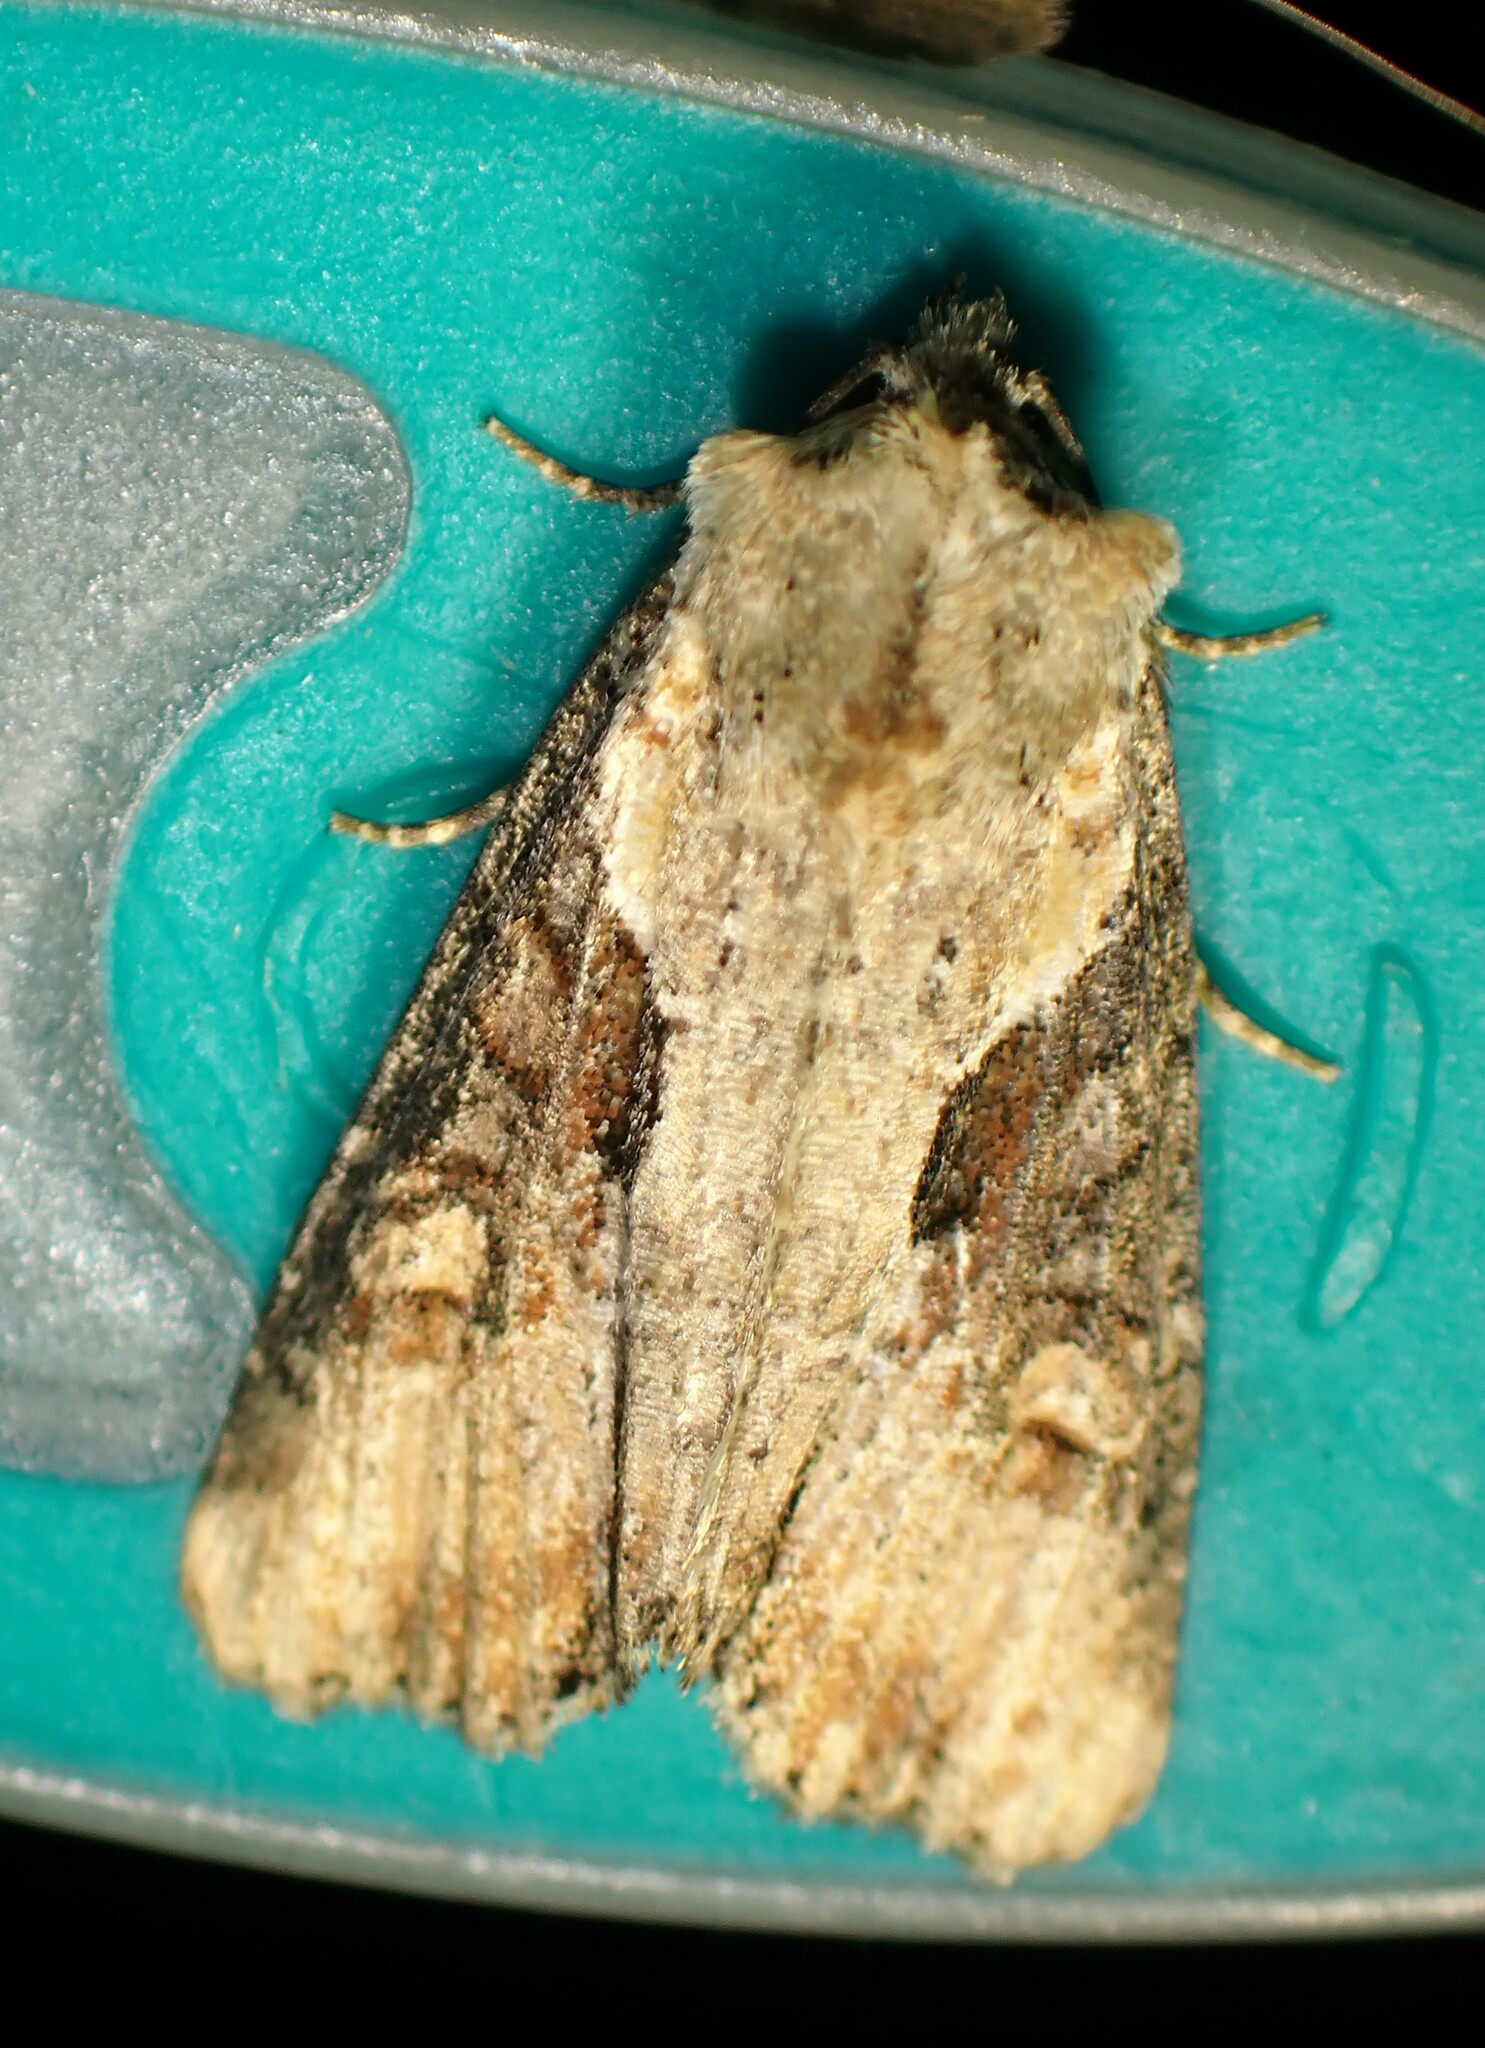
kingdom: Animalia
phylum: Arthropoda
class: Insecta
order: Lepidoptera
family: Noctuidae
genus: Lateroligia
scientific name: Lateroligia ophiogramma
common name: Double lobed
